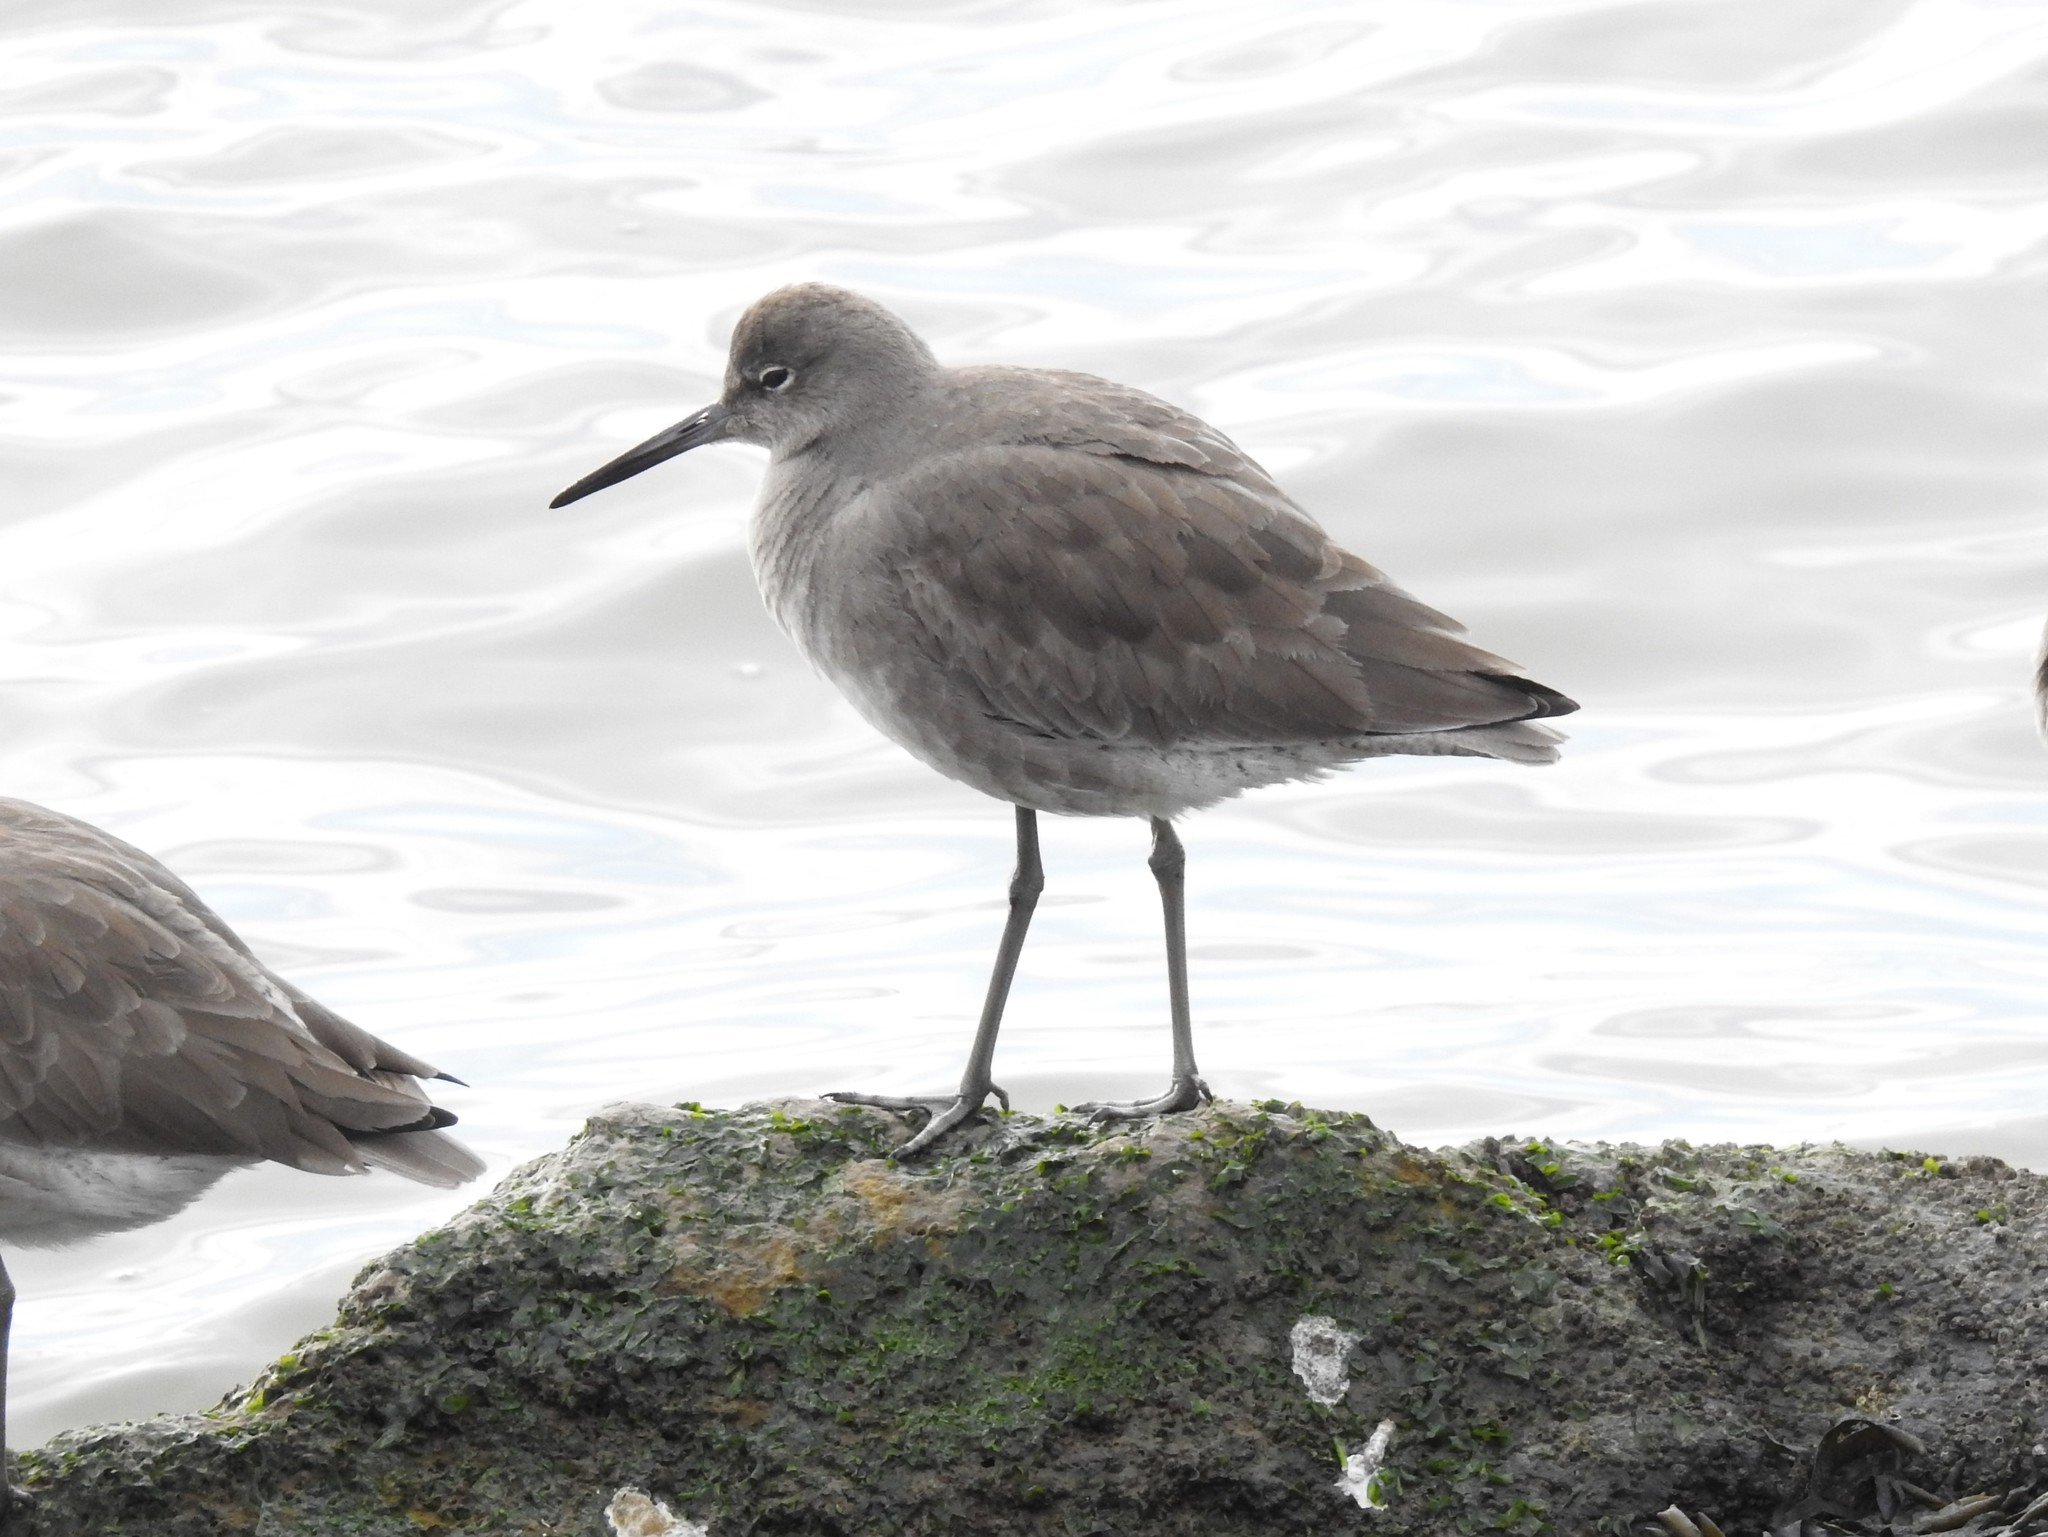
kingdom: Animalia
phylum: Chordata
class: Aves
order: Charadriiformes
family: Scolopacidae
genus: Tringa
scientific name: Tringa semipalmata
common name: Willet
